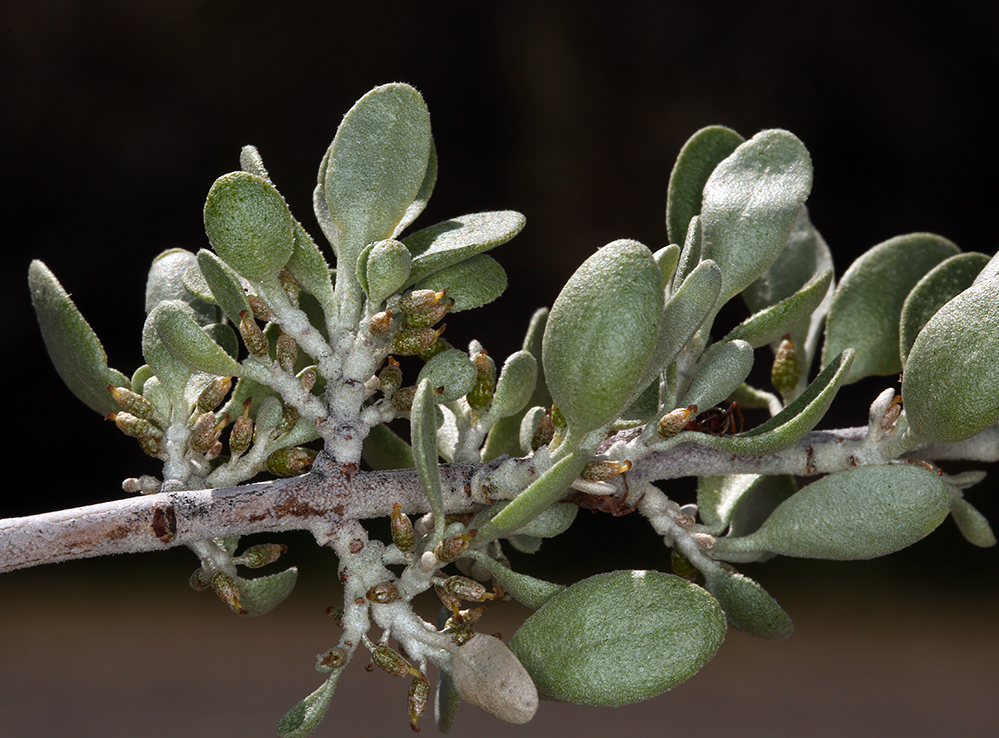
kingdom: Plantae
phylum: Tracheophyta
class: Magnoliopsida
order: Rosales
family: Elaeagnaceae
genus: Shepherdia
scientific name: Shepherdia argentea
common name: Silver buffaloberry
